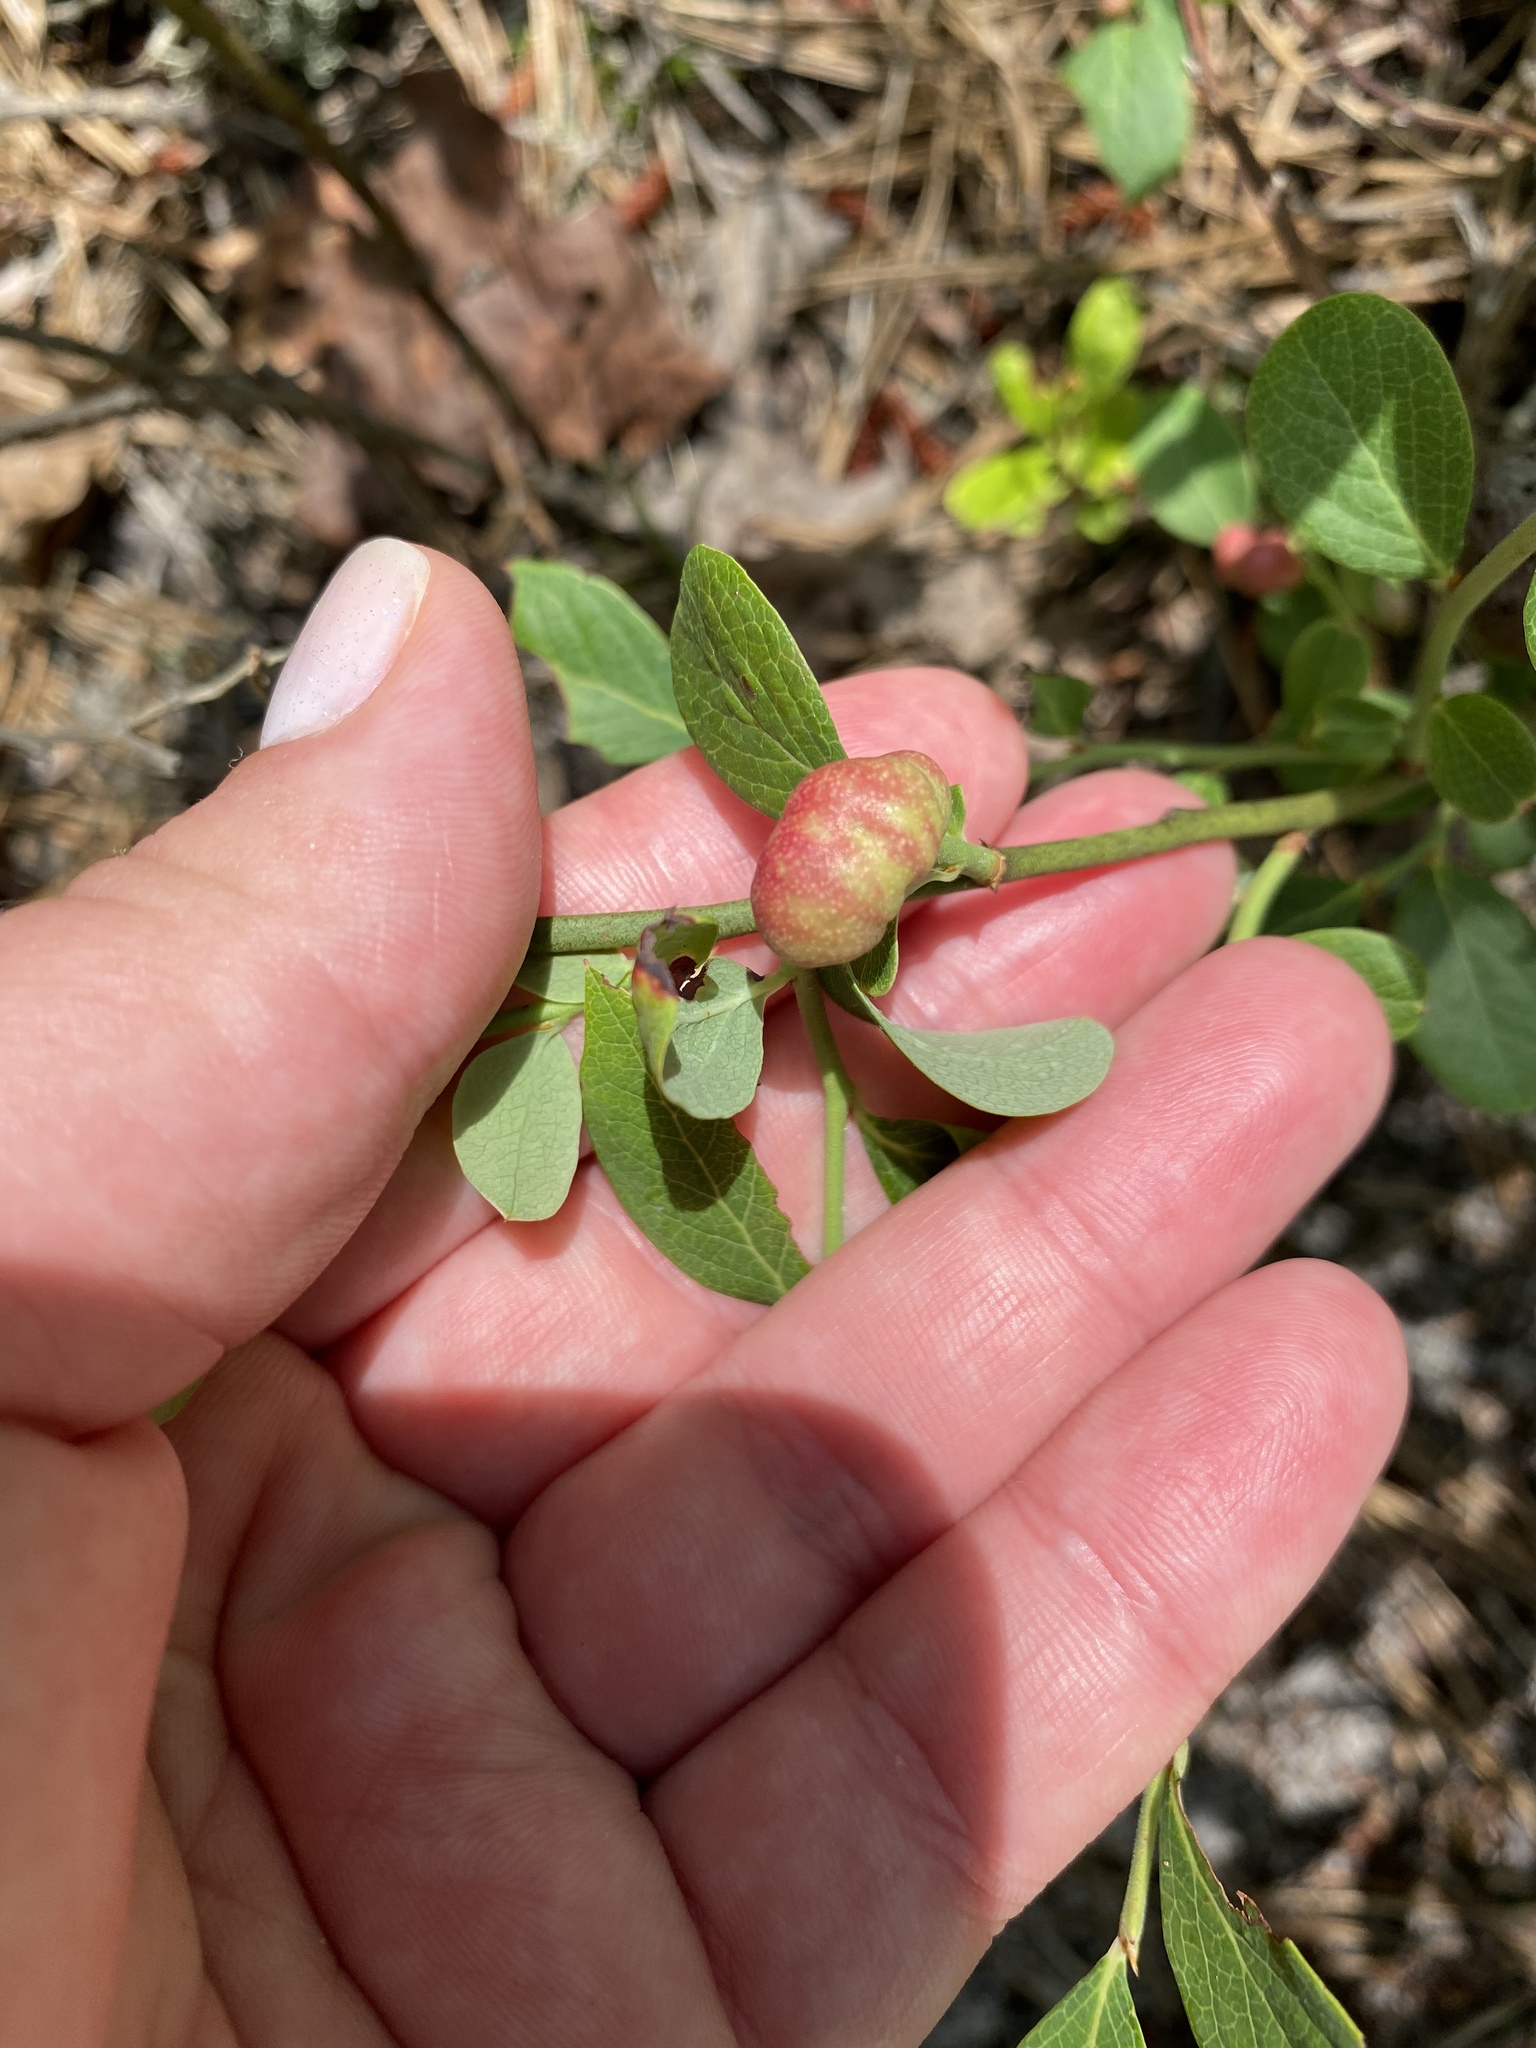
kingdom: Animalia
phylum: Arthropoda
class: Insecta
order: Hymenoptera
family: Pteromalidae
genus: Hemadas
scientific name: Hemadas nubilipennis
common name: Blueberry stem gall wasp
